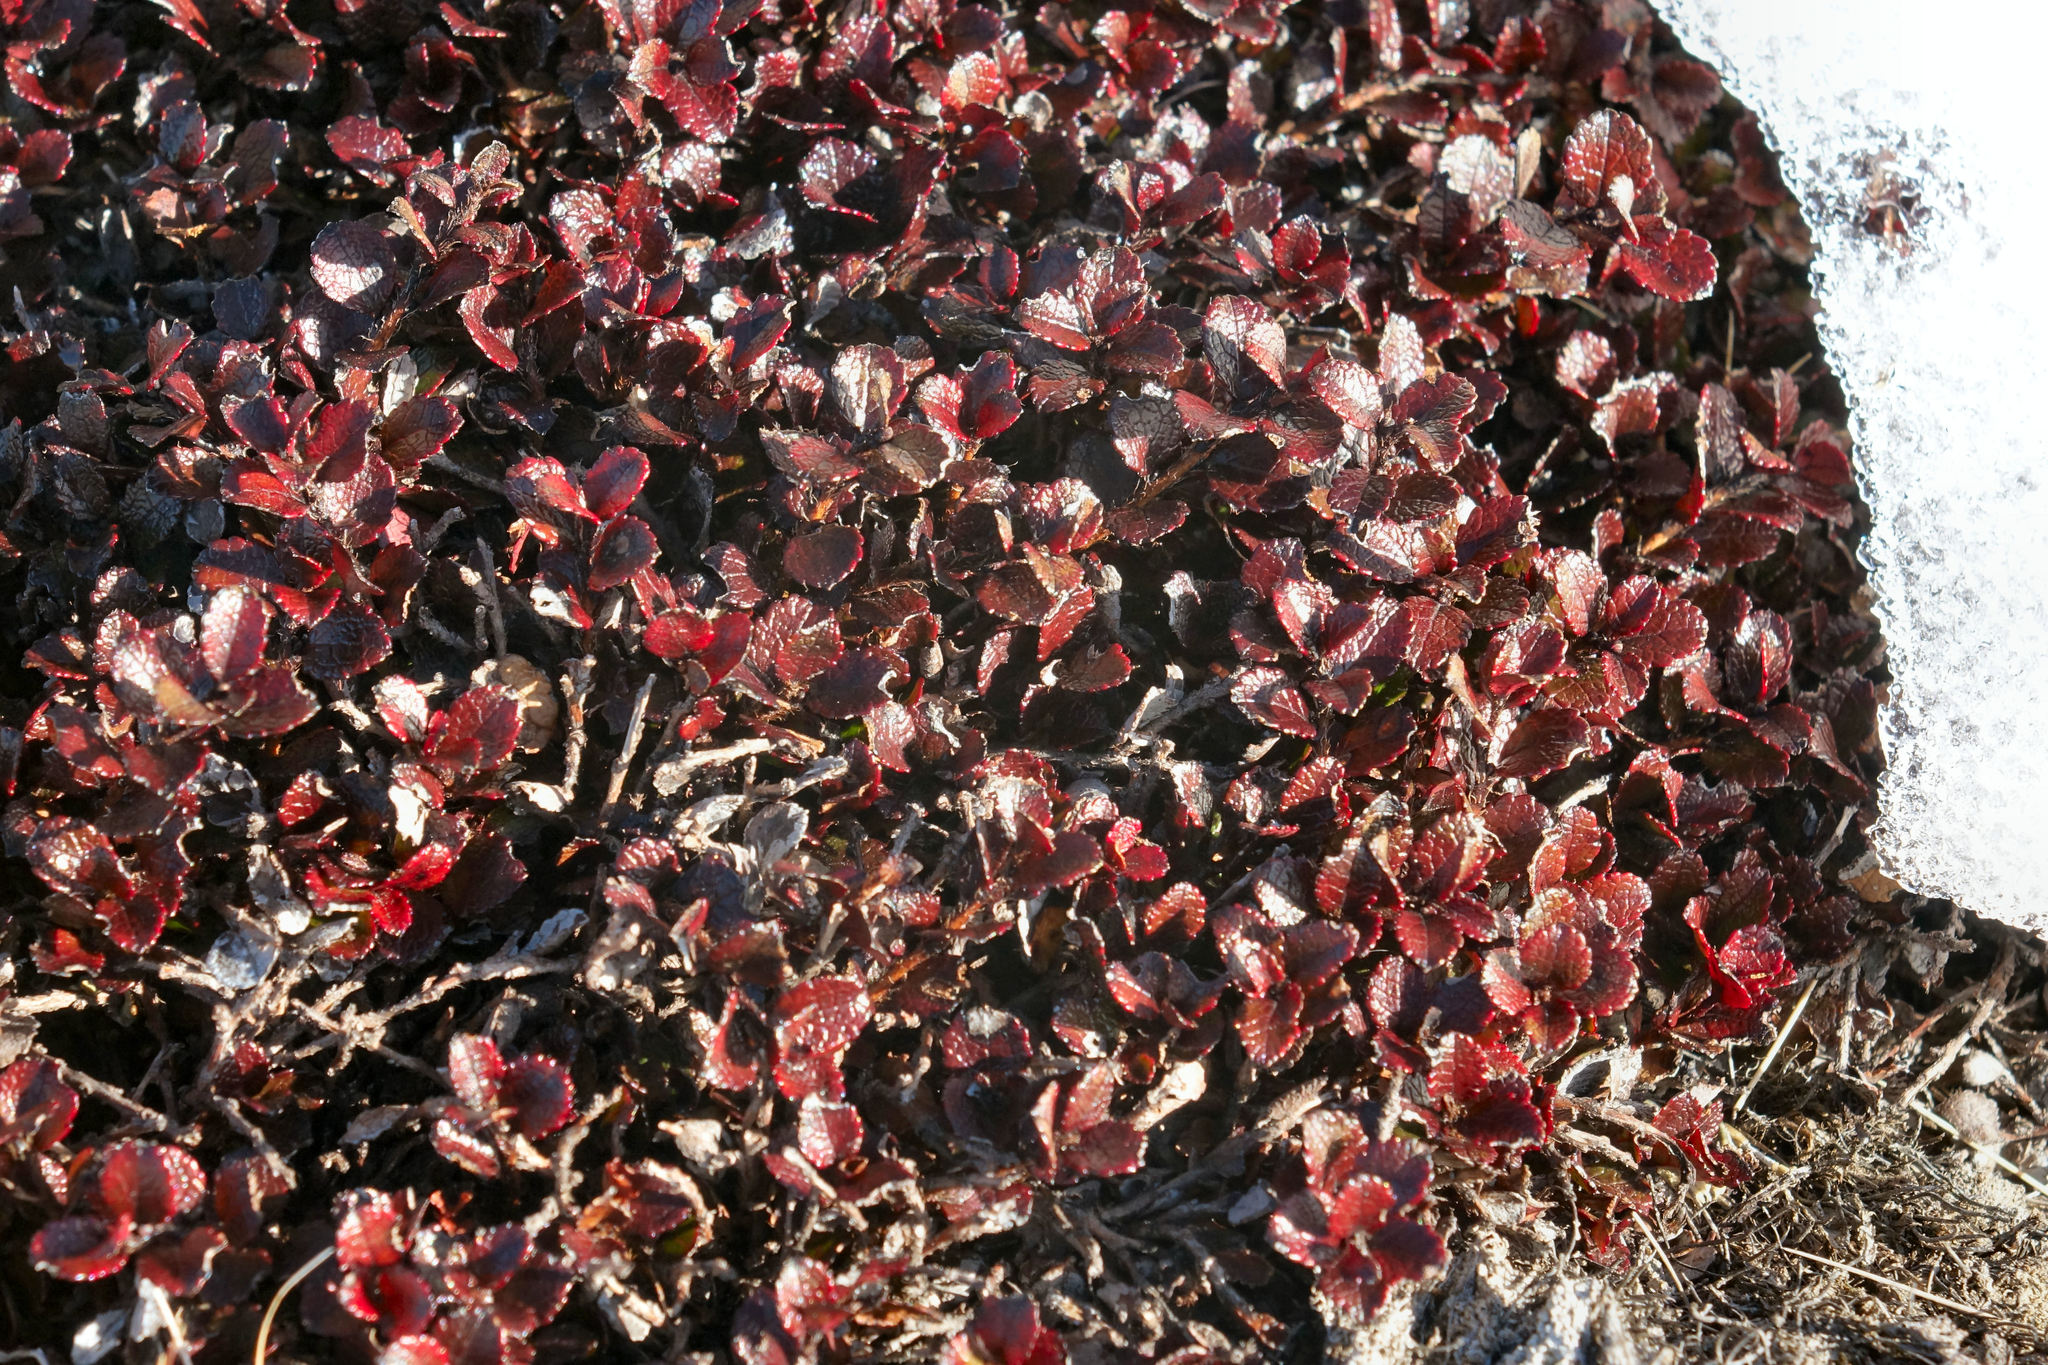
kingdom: Plantae
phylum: Tracheophyta
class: Magnoliopsida
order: Ericales
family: Ericaceae
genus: Gaultheria
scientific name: Gaultheria depressa
